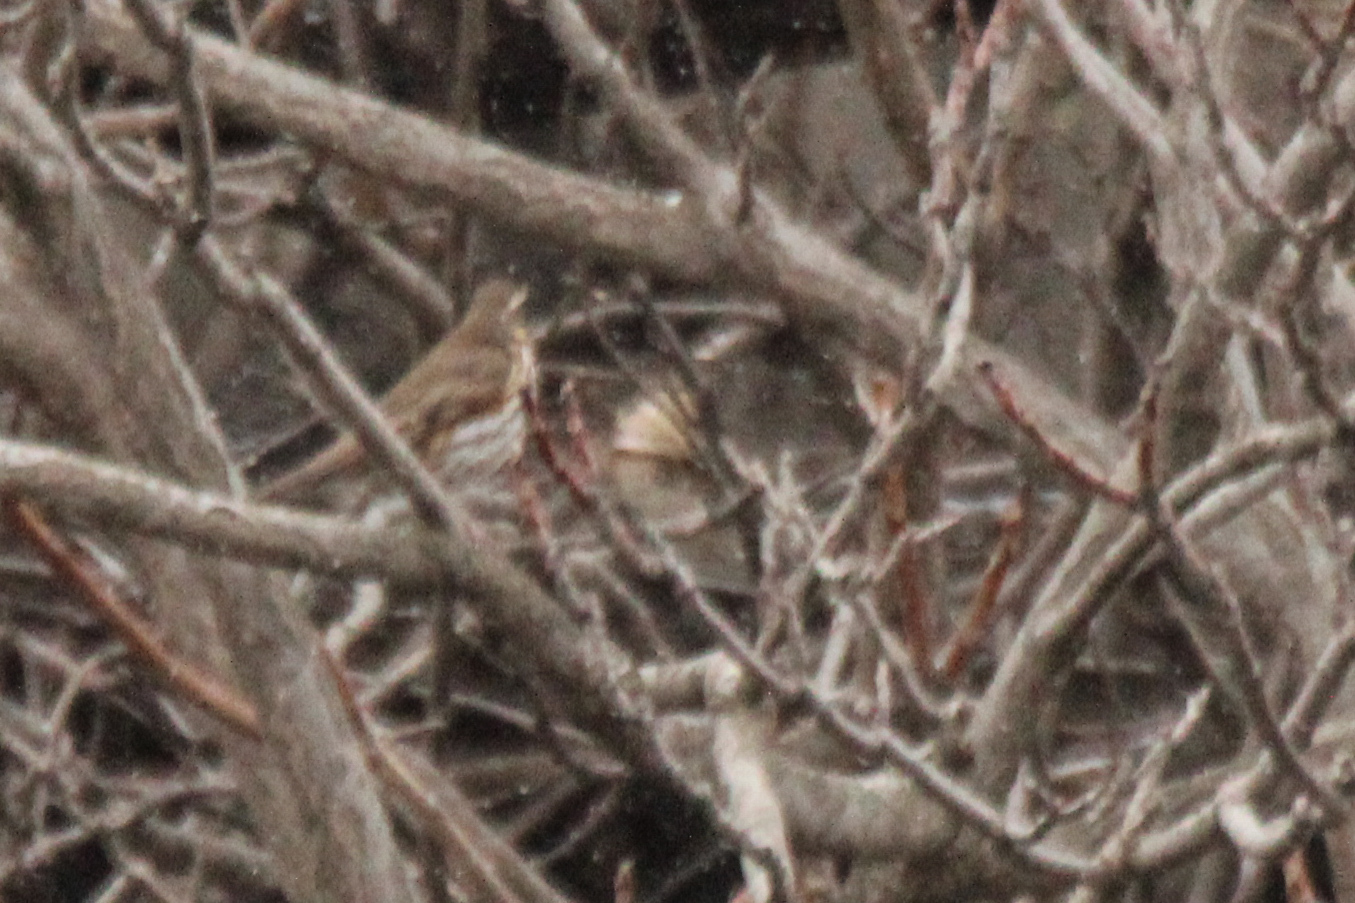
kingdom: Animalia
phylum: Chordata
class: Aves
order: Passeriformes
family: Turdidae
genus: Turdus
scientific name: Turdus iliacus
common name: Redwing
